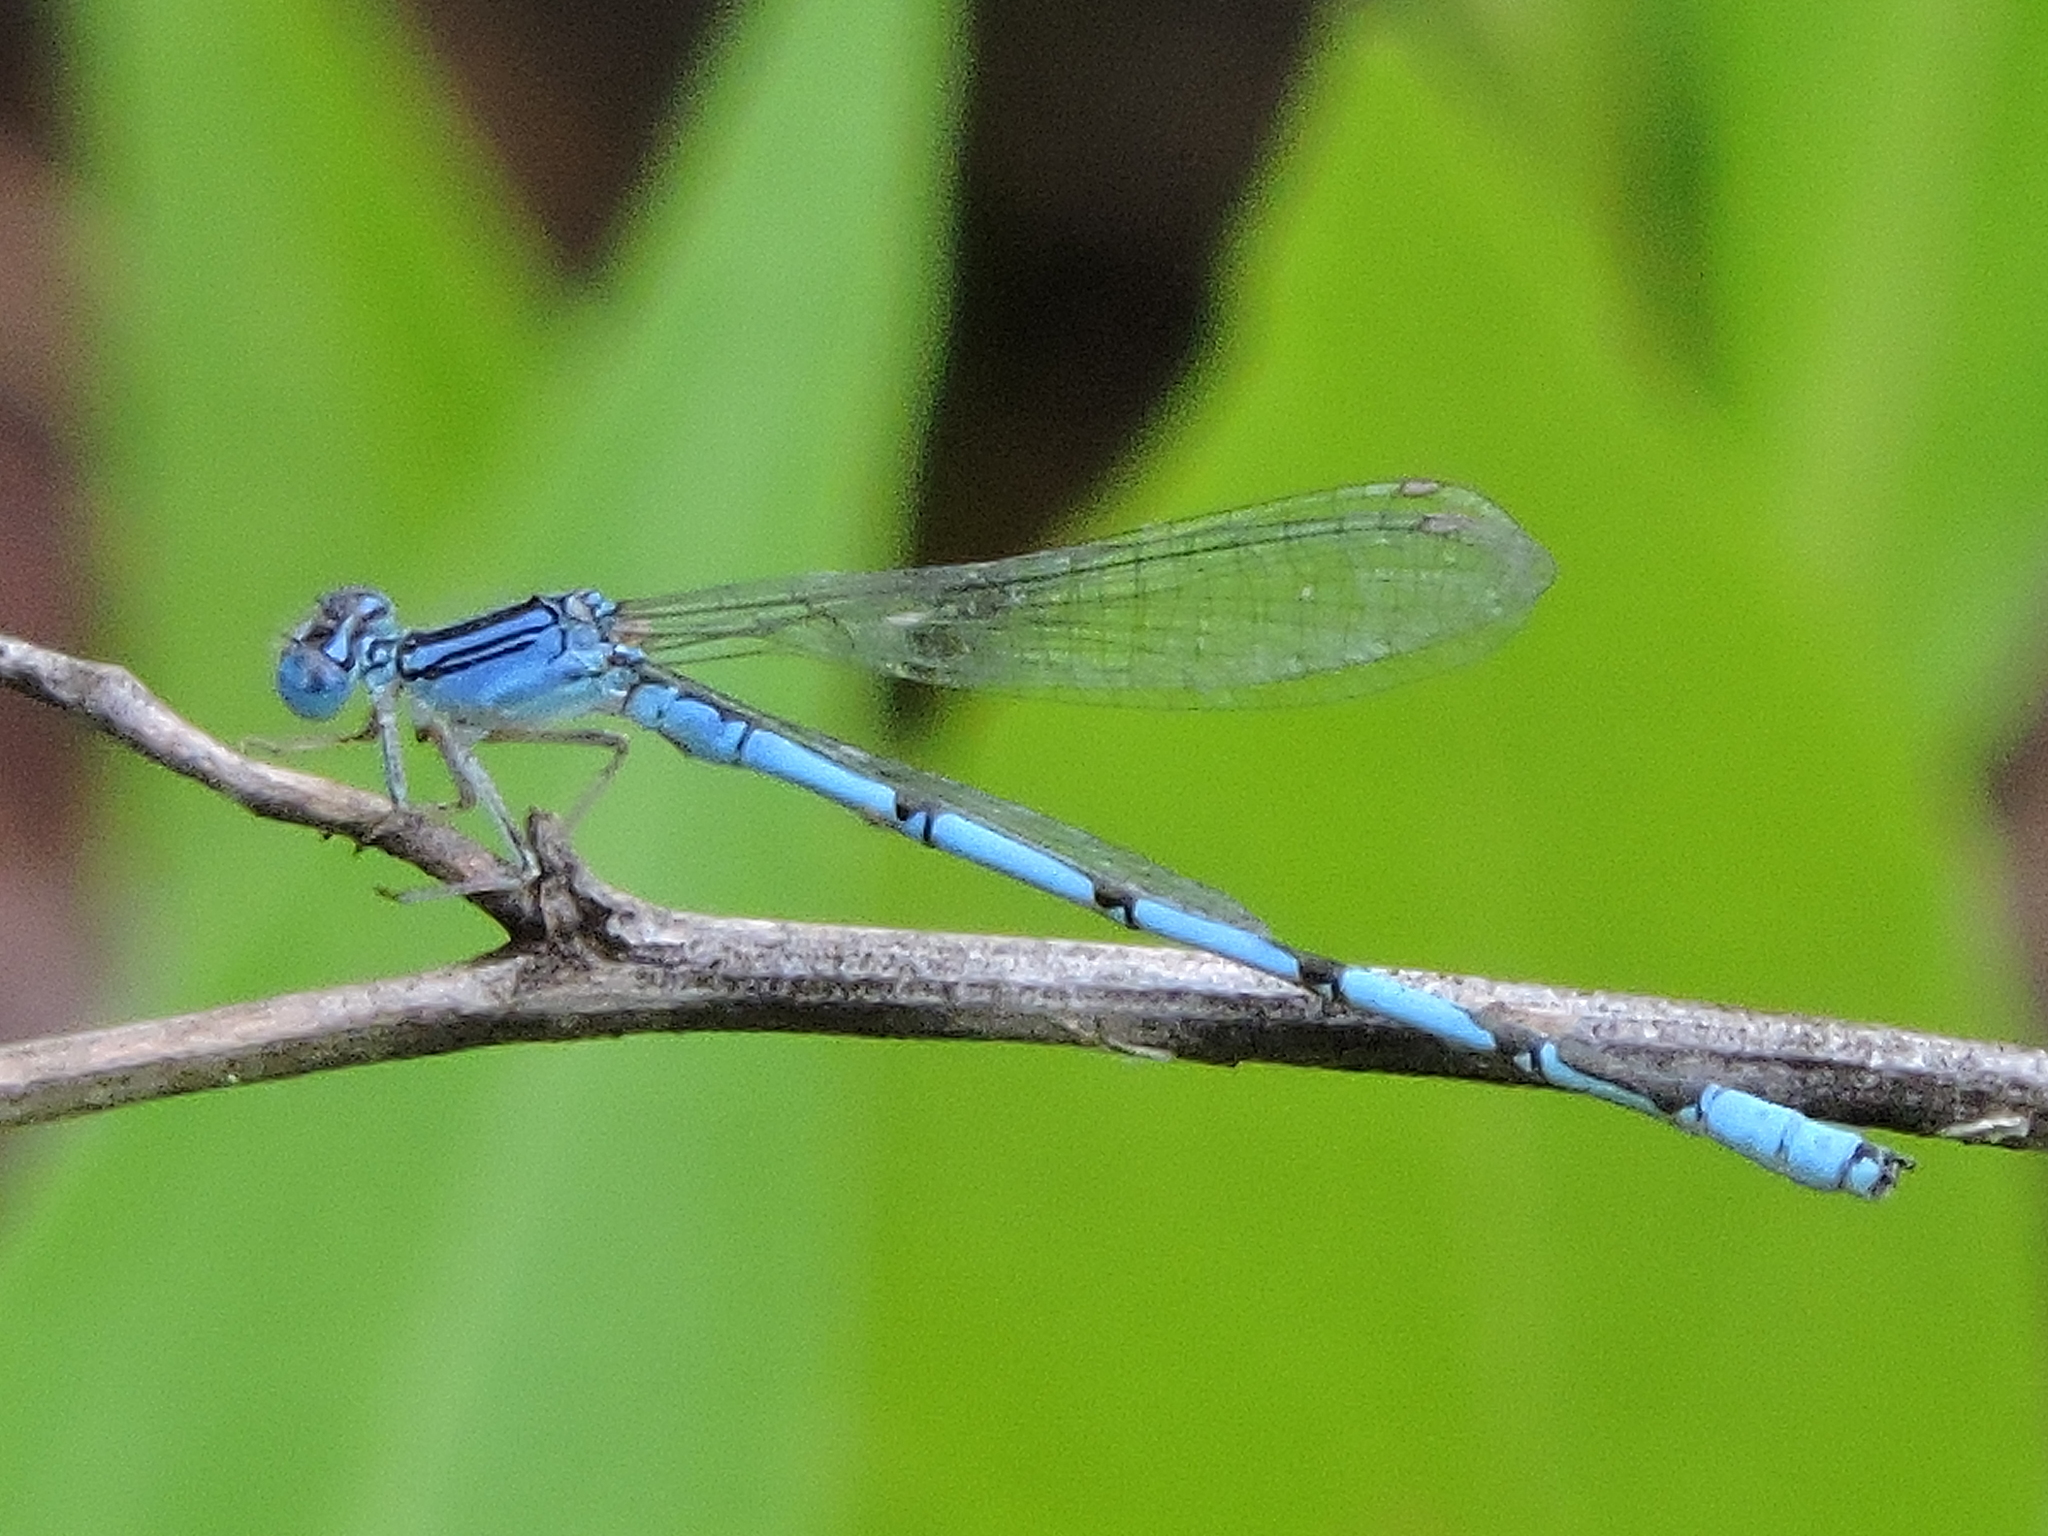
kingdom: Animalia
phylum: Arthropoda
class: Insecta
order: Odonata
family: Coenagrionidae
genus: Enallagma
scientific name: Enallagma basidens
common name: Double-striped bluet
